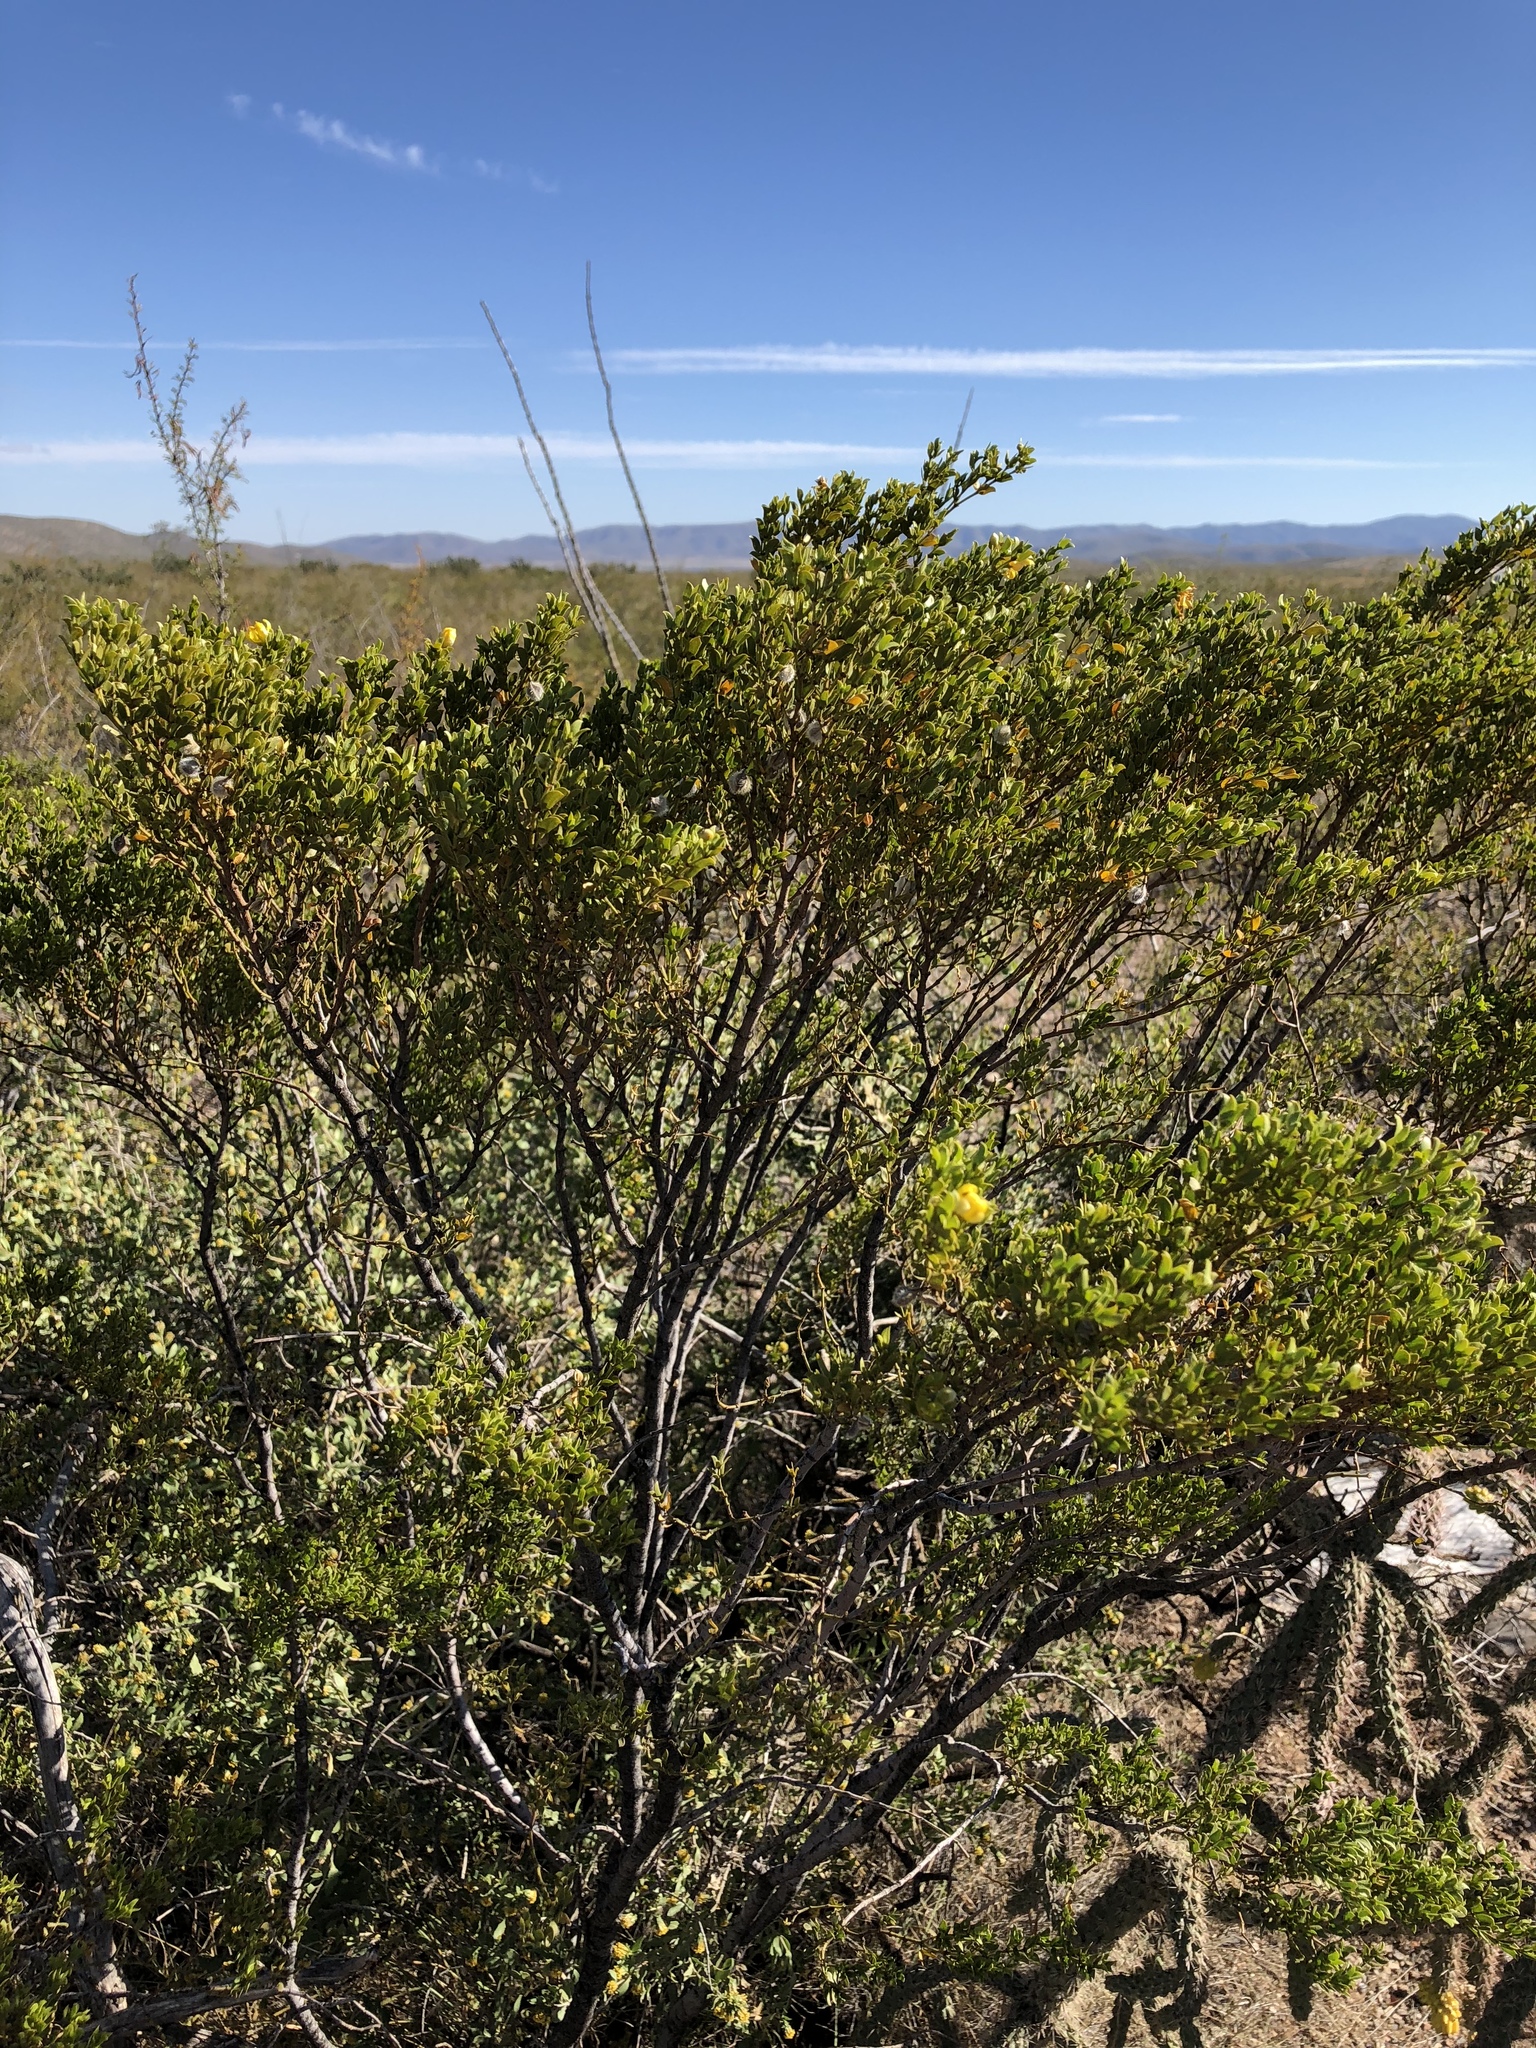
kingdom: Plantae
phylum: Tracheophyta
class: Magnoliopsida
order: Zygophyllales
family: Zygophyllaceae
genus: Larrea
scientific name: Larrea tridentata
